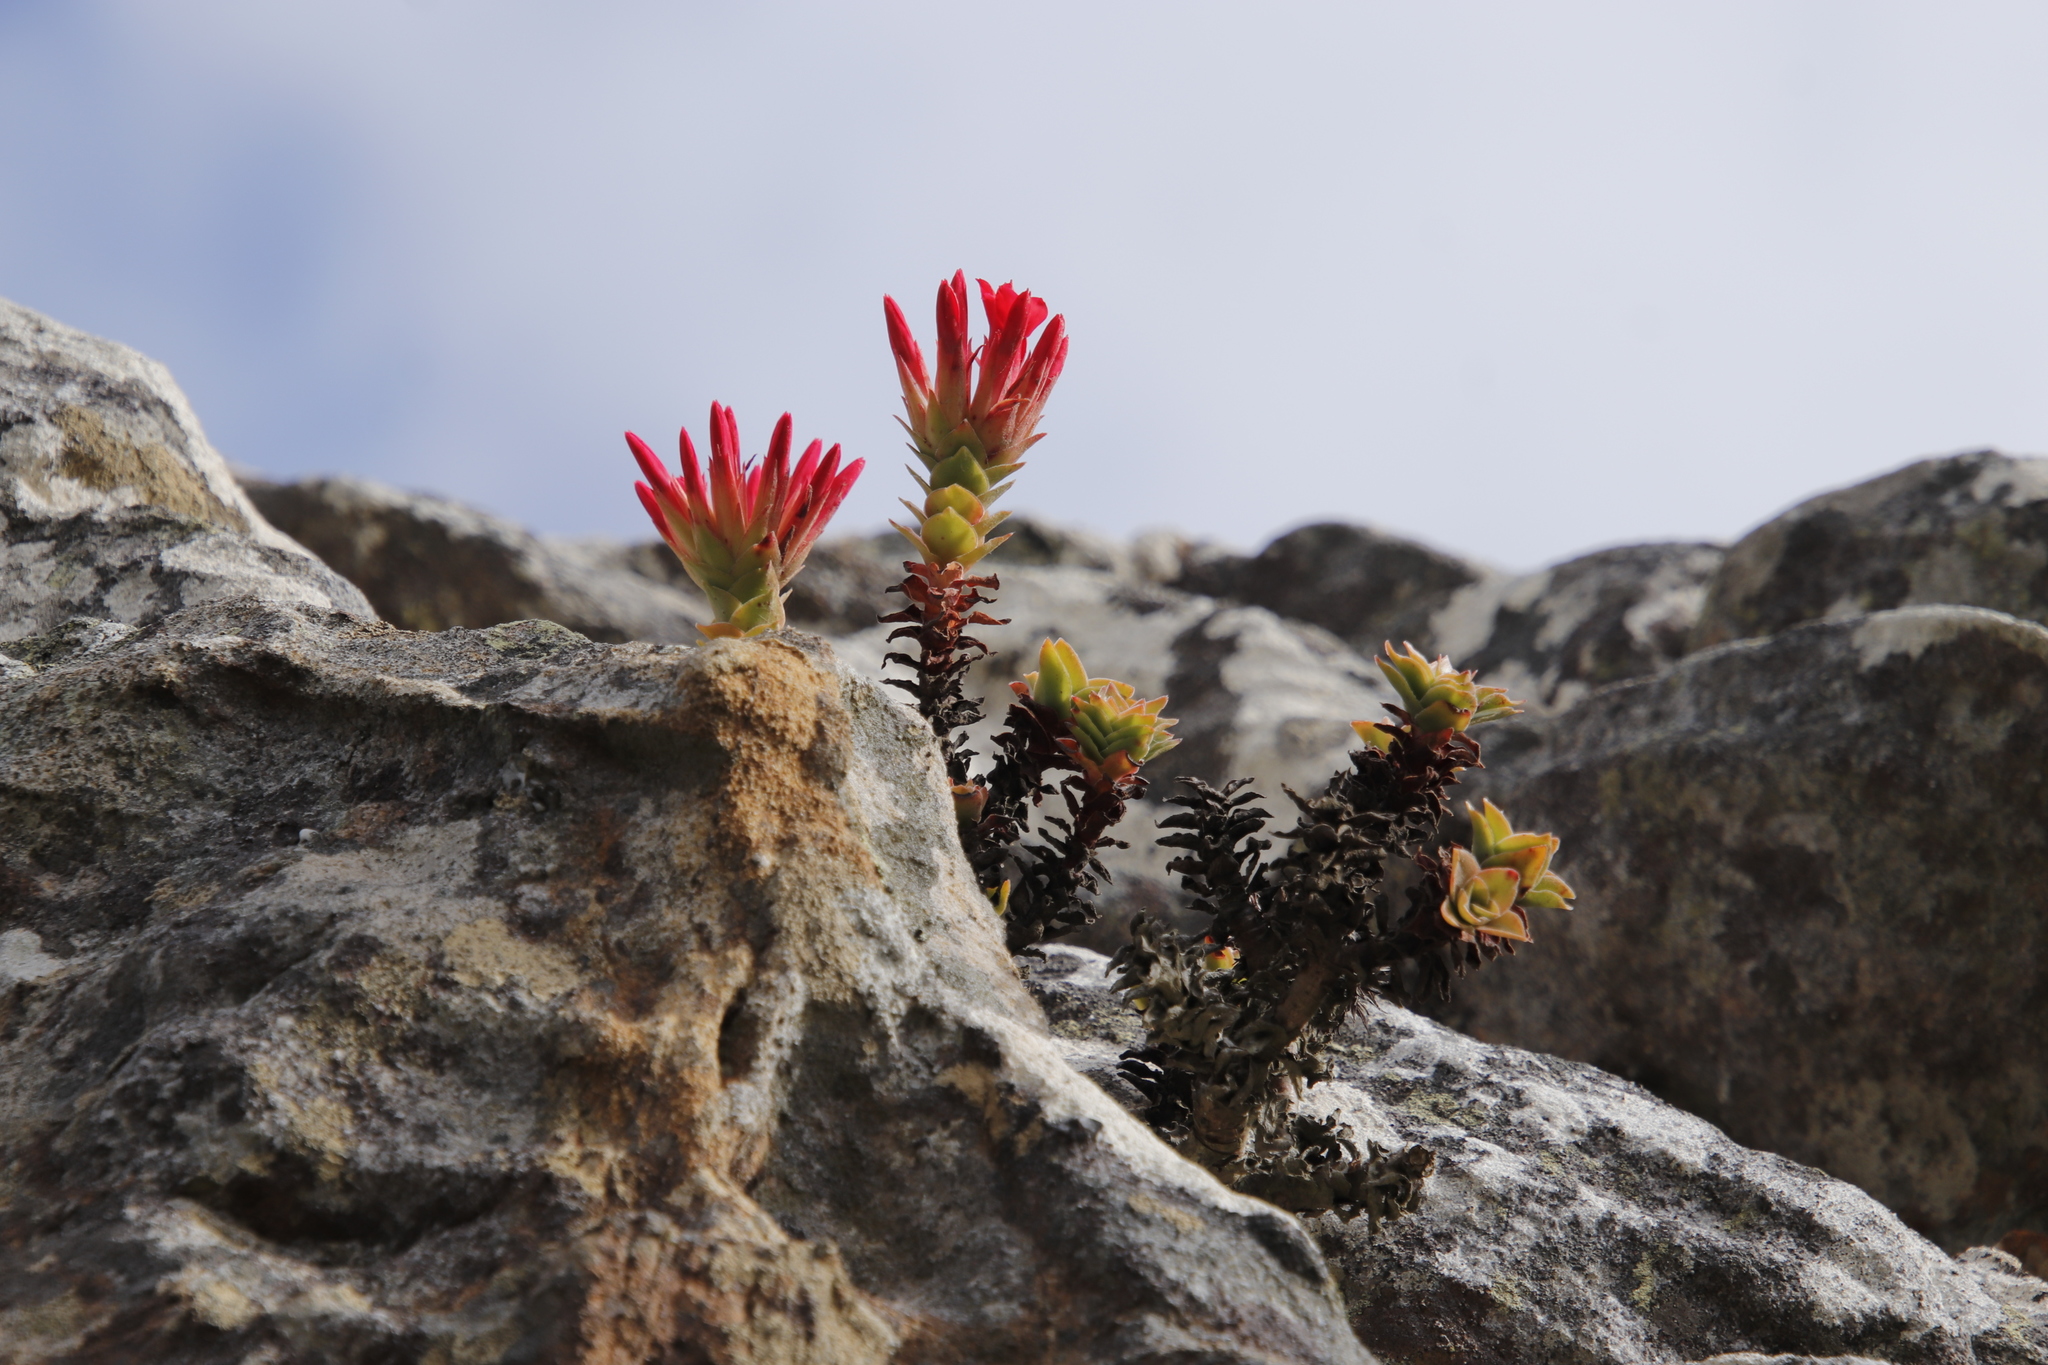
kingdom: Plantae
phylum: Tracheophyta
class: Magnoliopsida
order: Saxifragales
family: Crassulaceae
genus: Crassula
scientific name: Crassula coccinea
